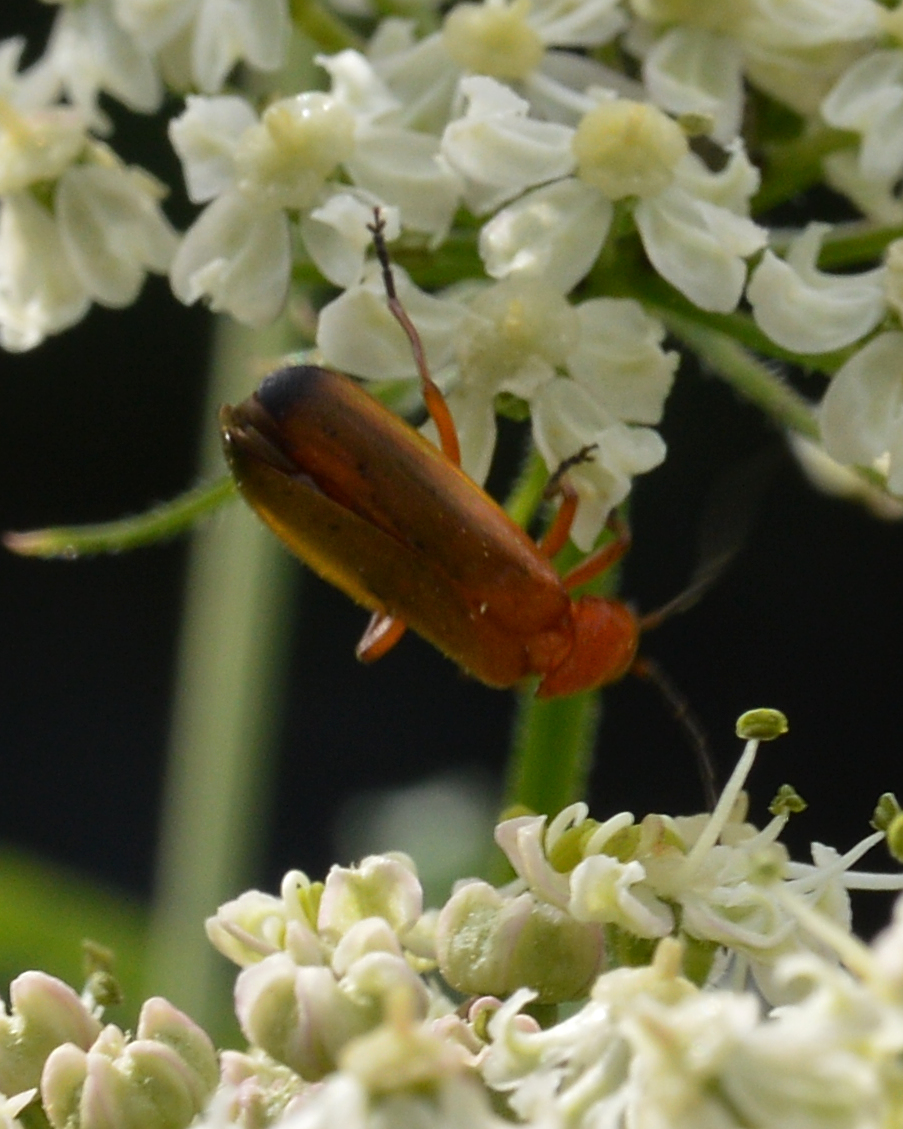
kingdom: Animalia
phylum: Arthropoda
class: Insecta
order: Coleoptera
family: Cantharidae
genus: Rhagonycha
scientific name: Rhagonycha fulva
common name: Common red soldier beetle
